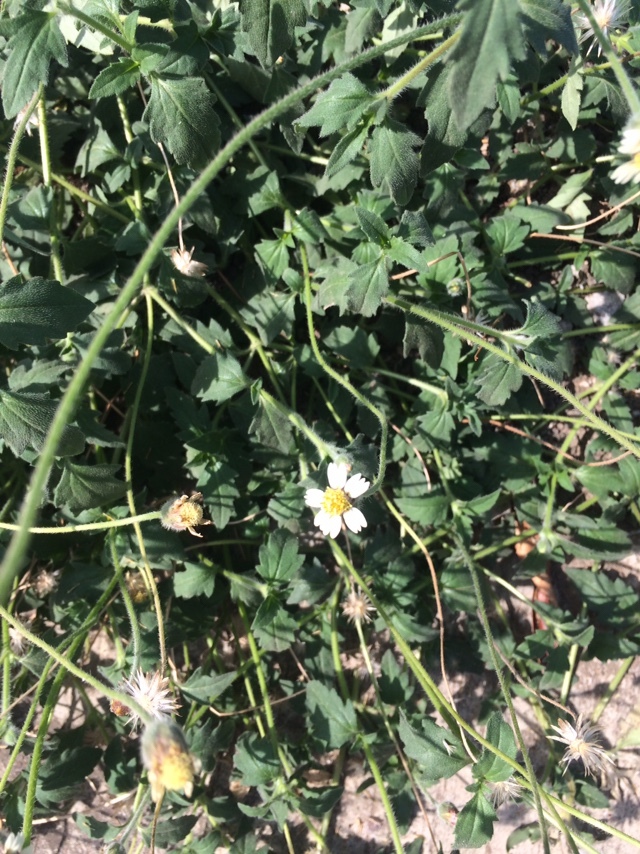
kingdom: Plantae
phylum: Tracheophyta
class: Magnoliopsida
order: Asterales
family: Asteraceae
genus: Tridax
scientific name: Tridax procumbens
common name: Coatbuttons
